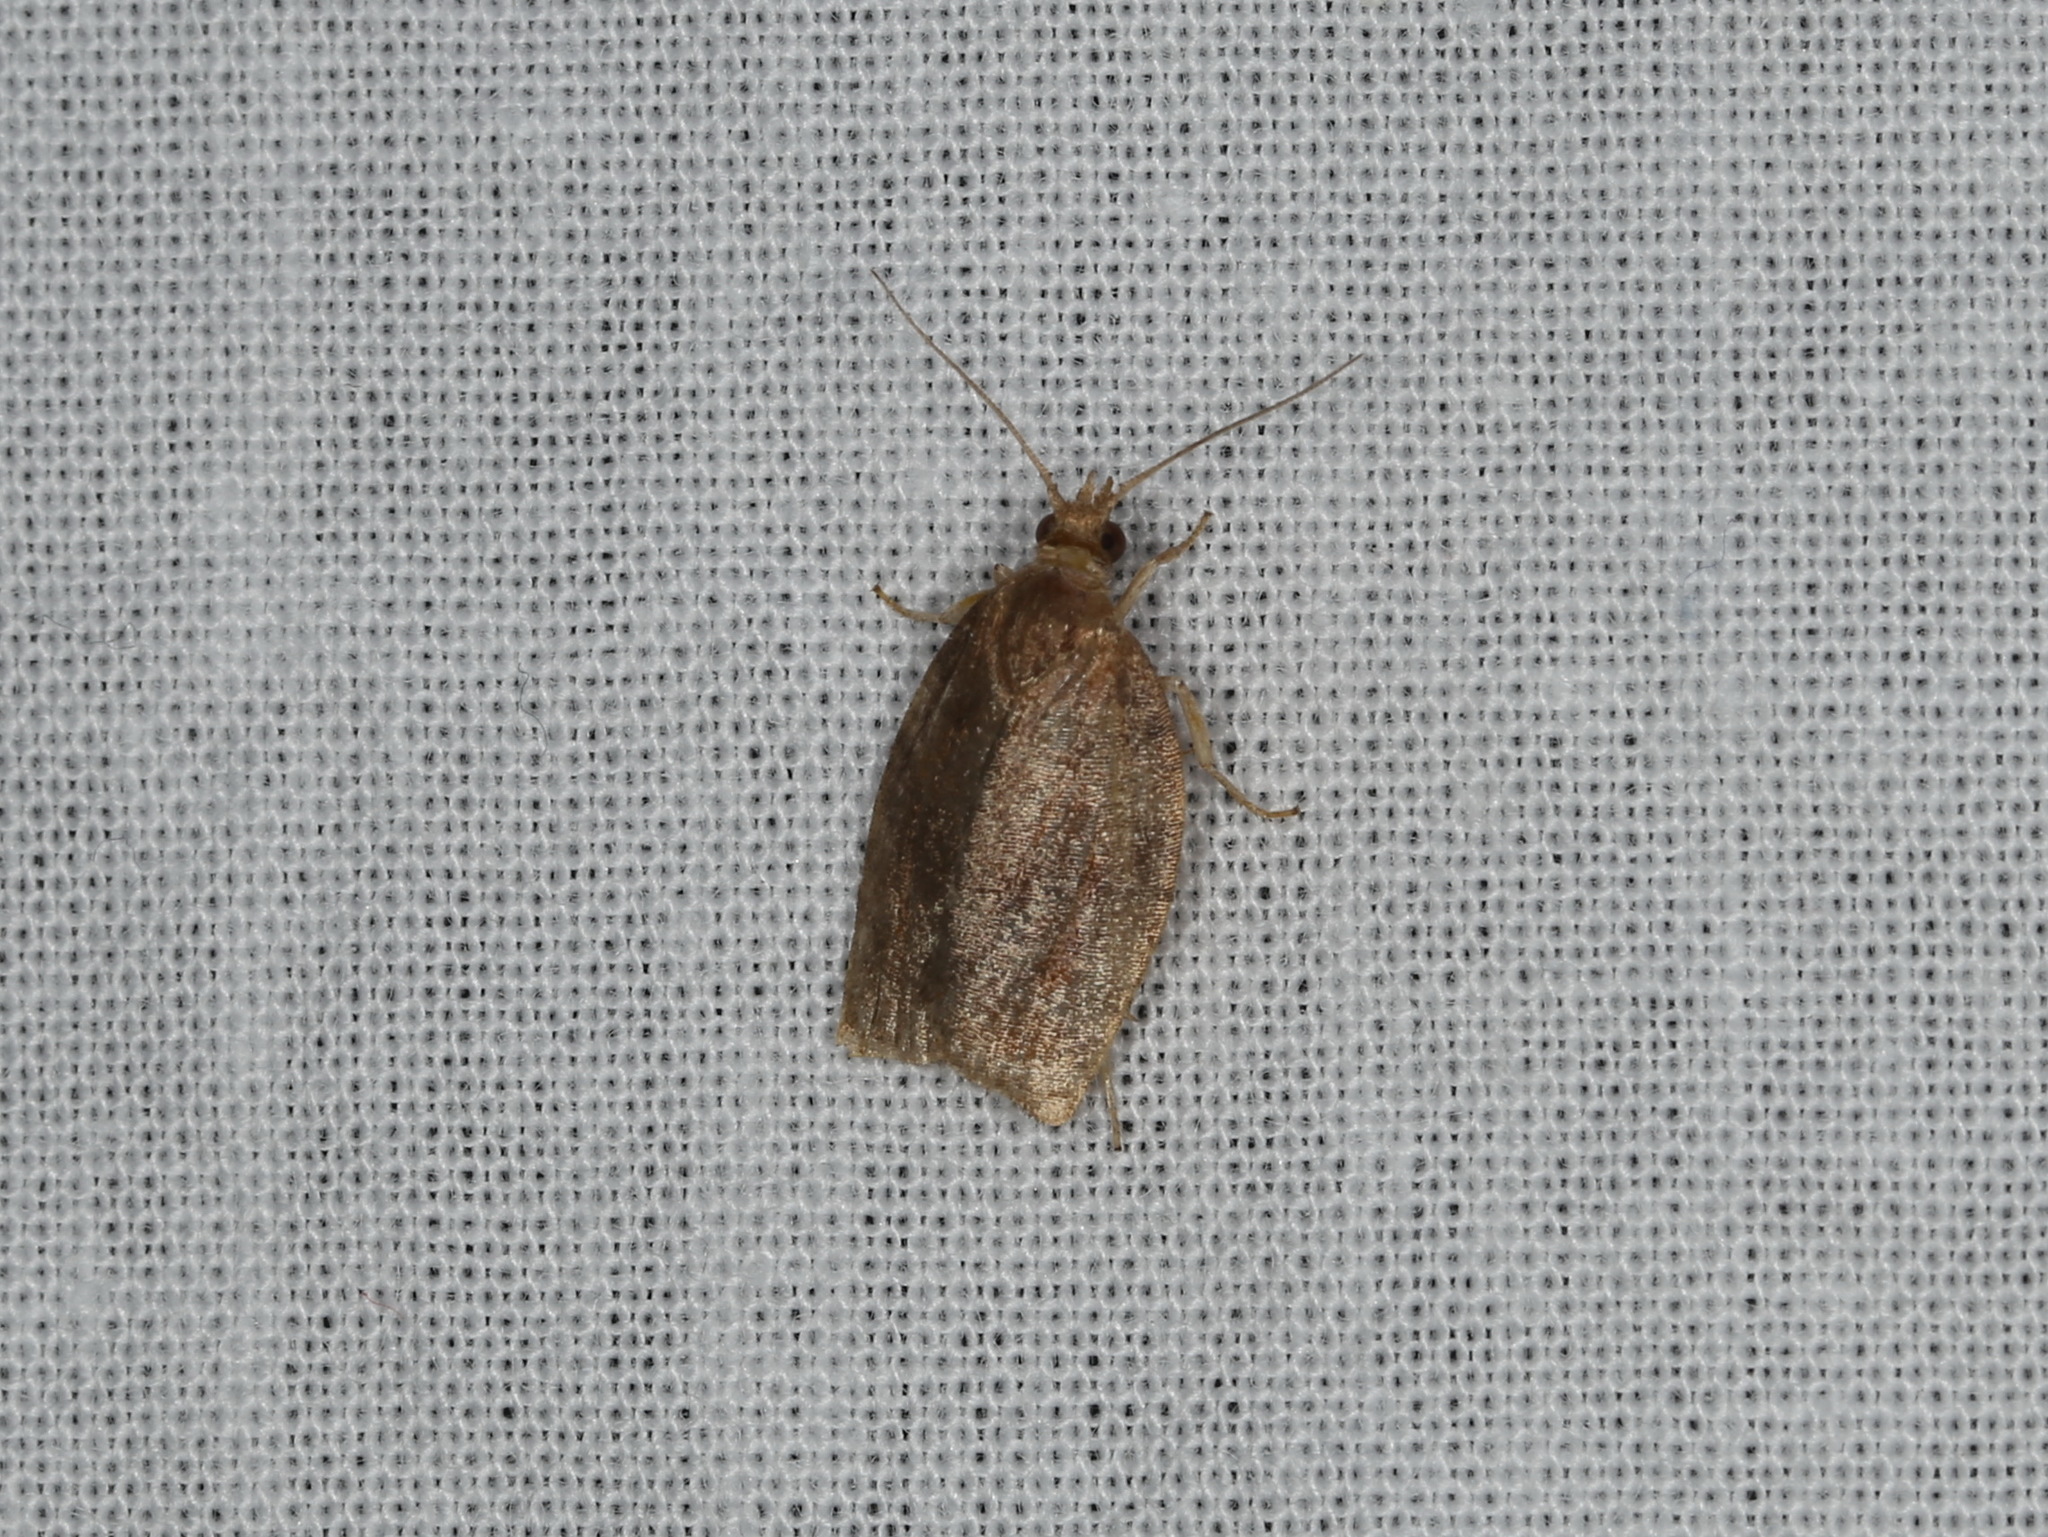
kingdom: Animalia
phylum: Arthropoda
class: Insecta
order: Lepidoptera
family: Tortricidae
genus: Pandemis
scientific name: Pandemis heparana
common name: Dark fruit-tree tortrix
